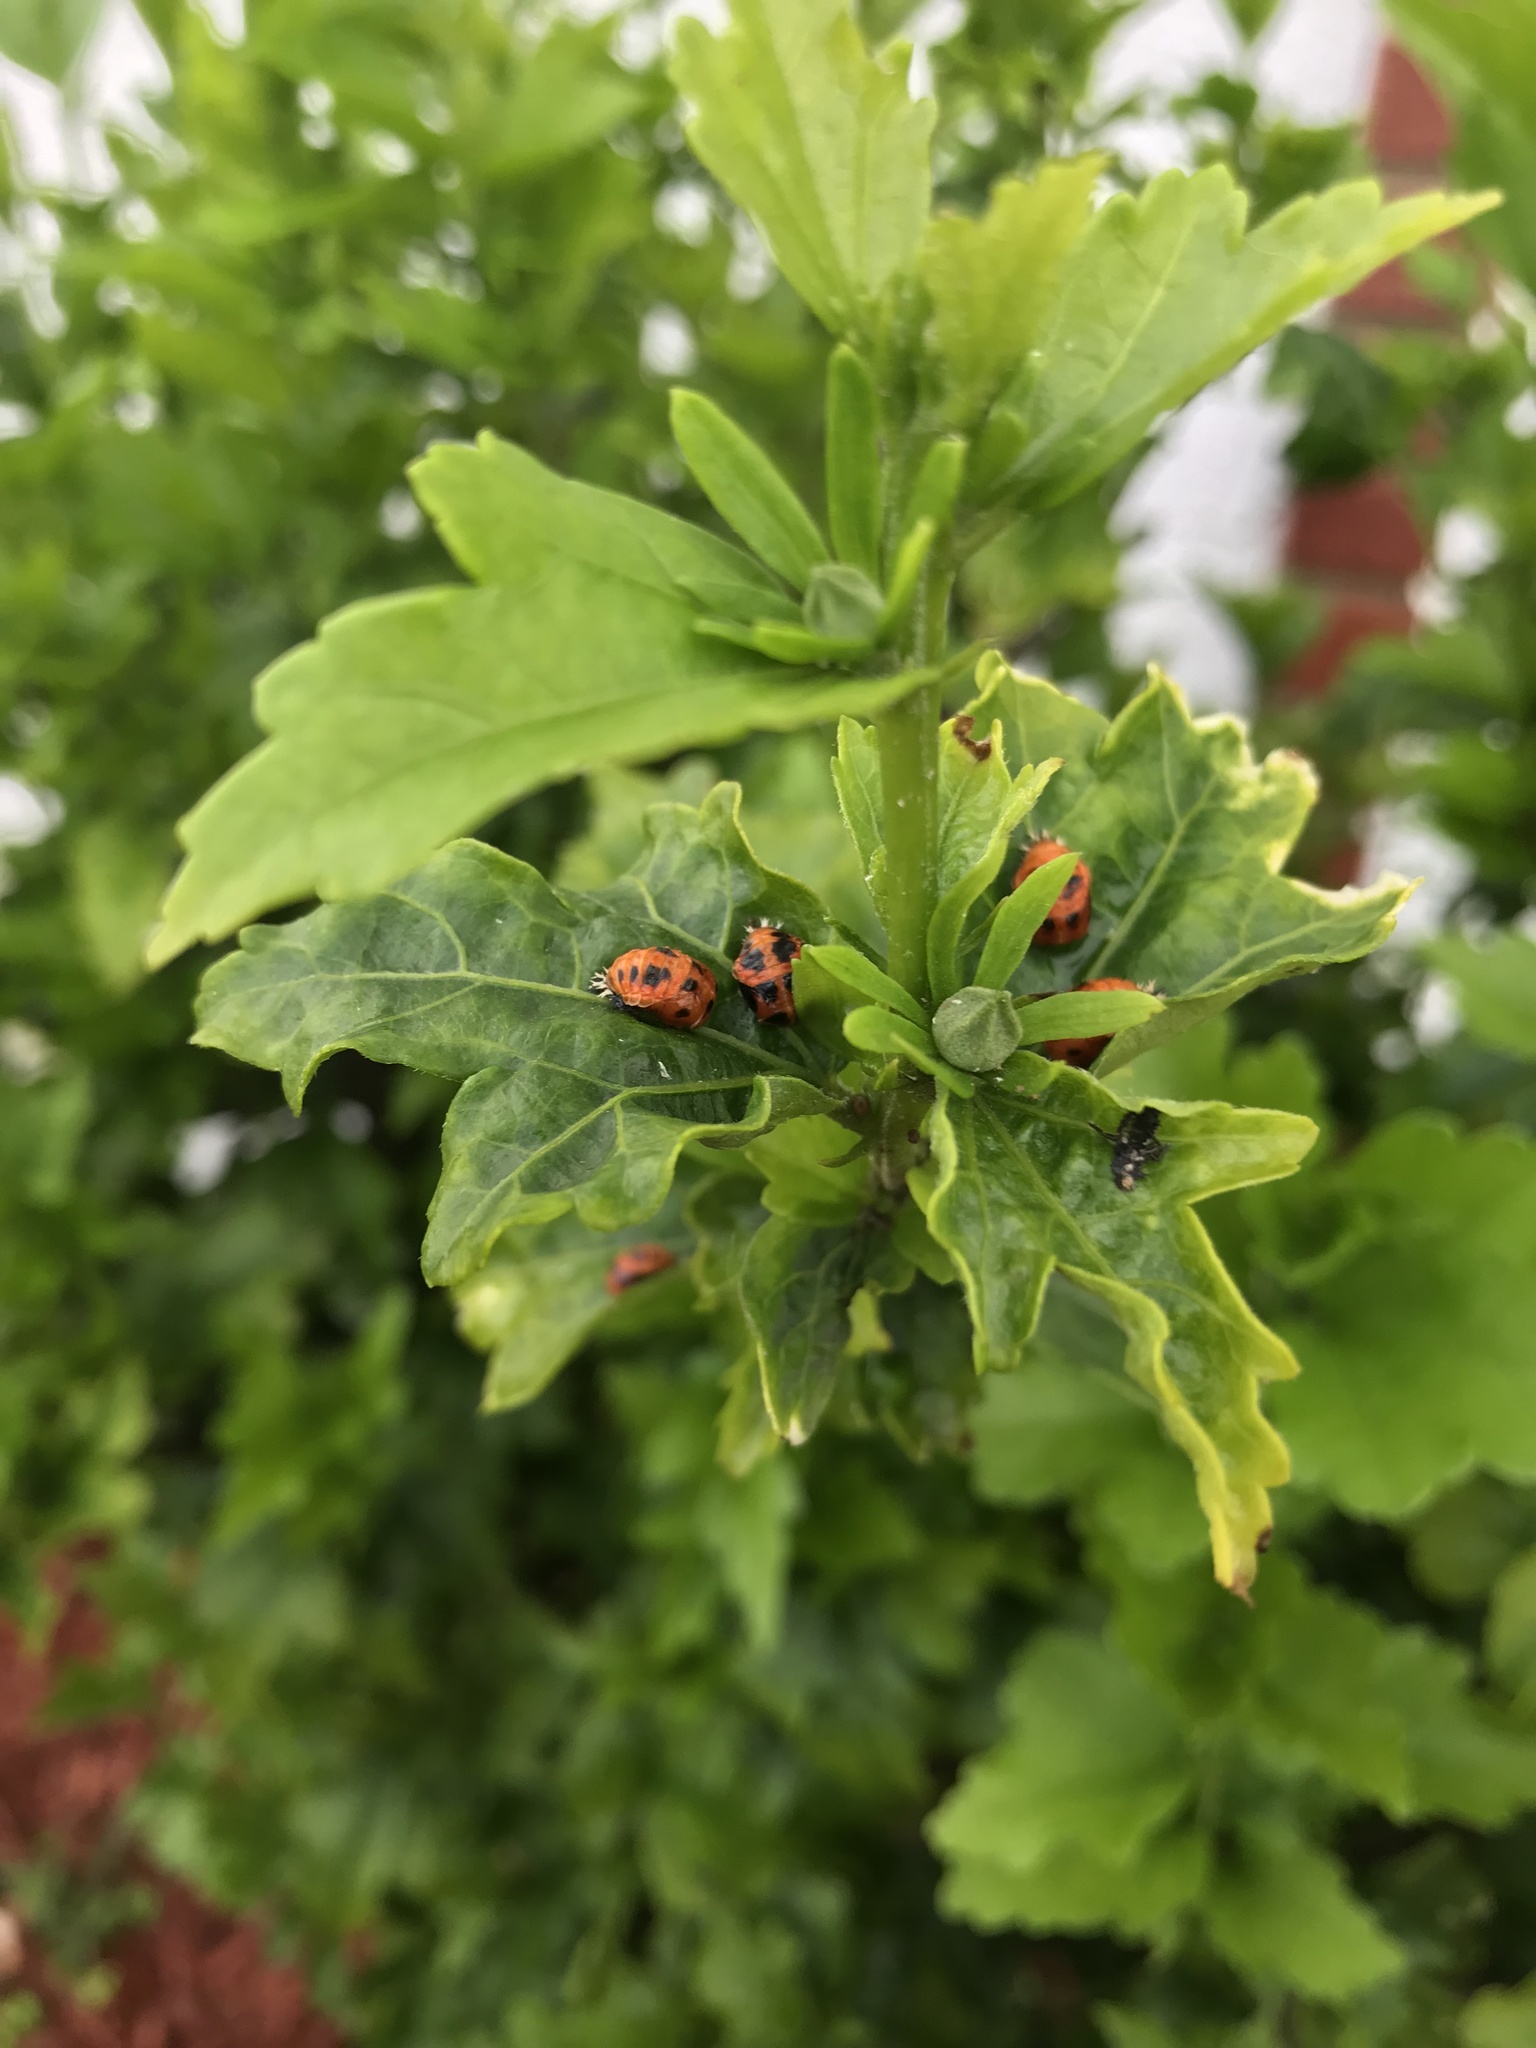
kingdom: Animalia
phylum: Arthropoda
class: Insecta
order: Coleoptera
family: Coccinellidae
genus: Harmonia
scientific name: Harmonia axyridis
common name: Harlequin ladybird
